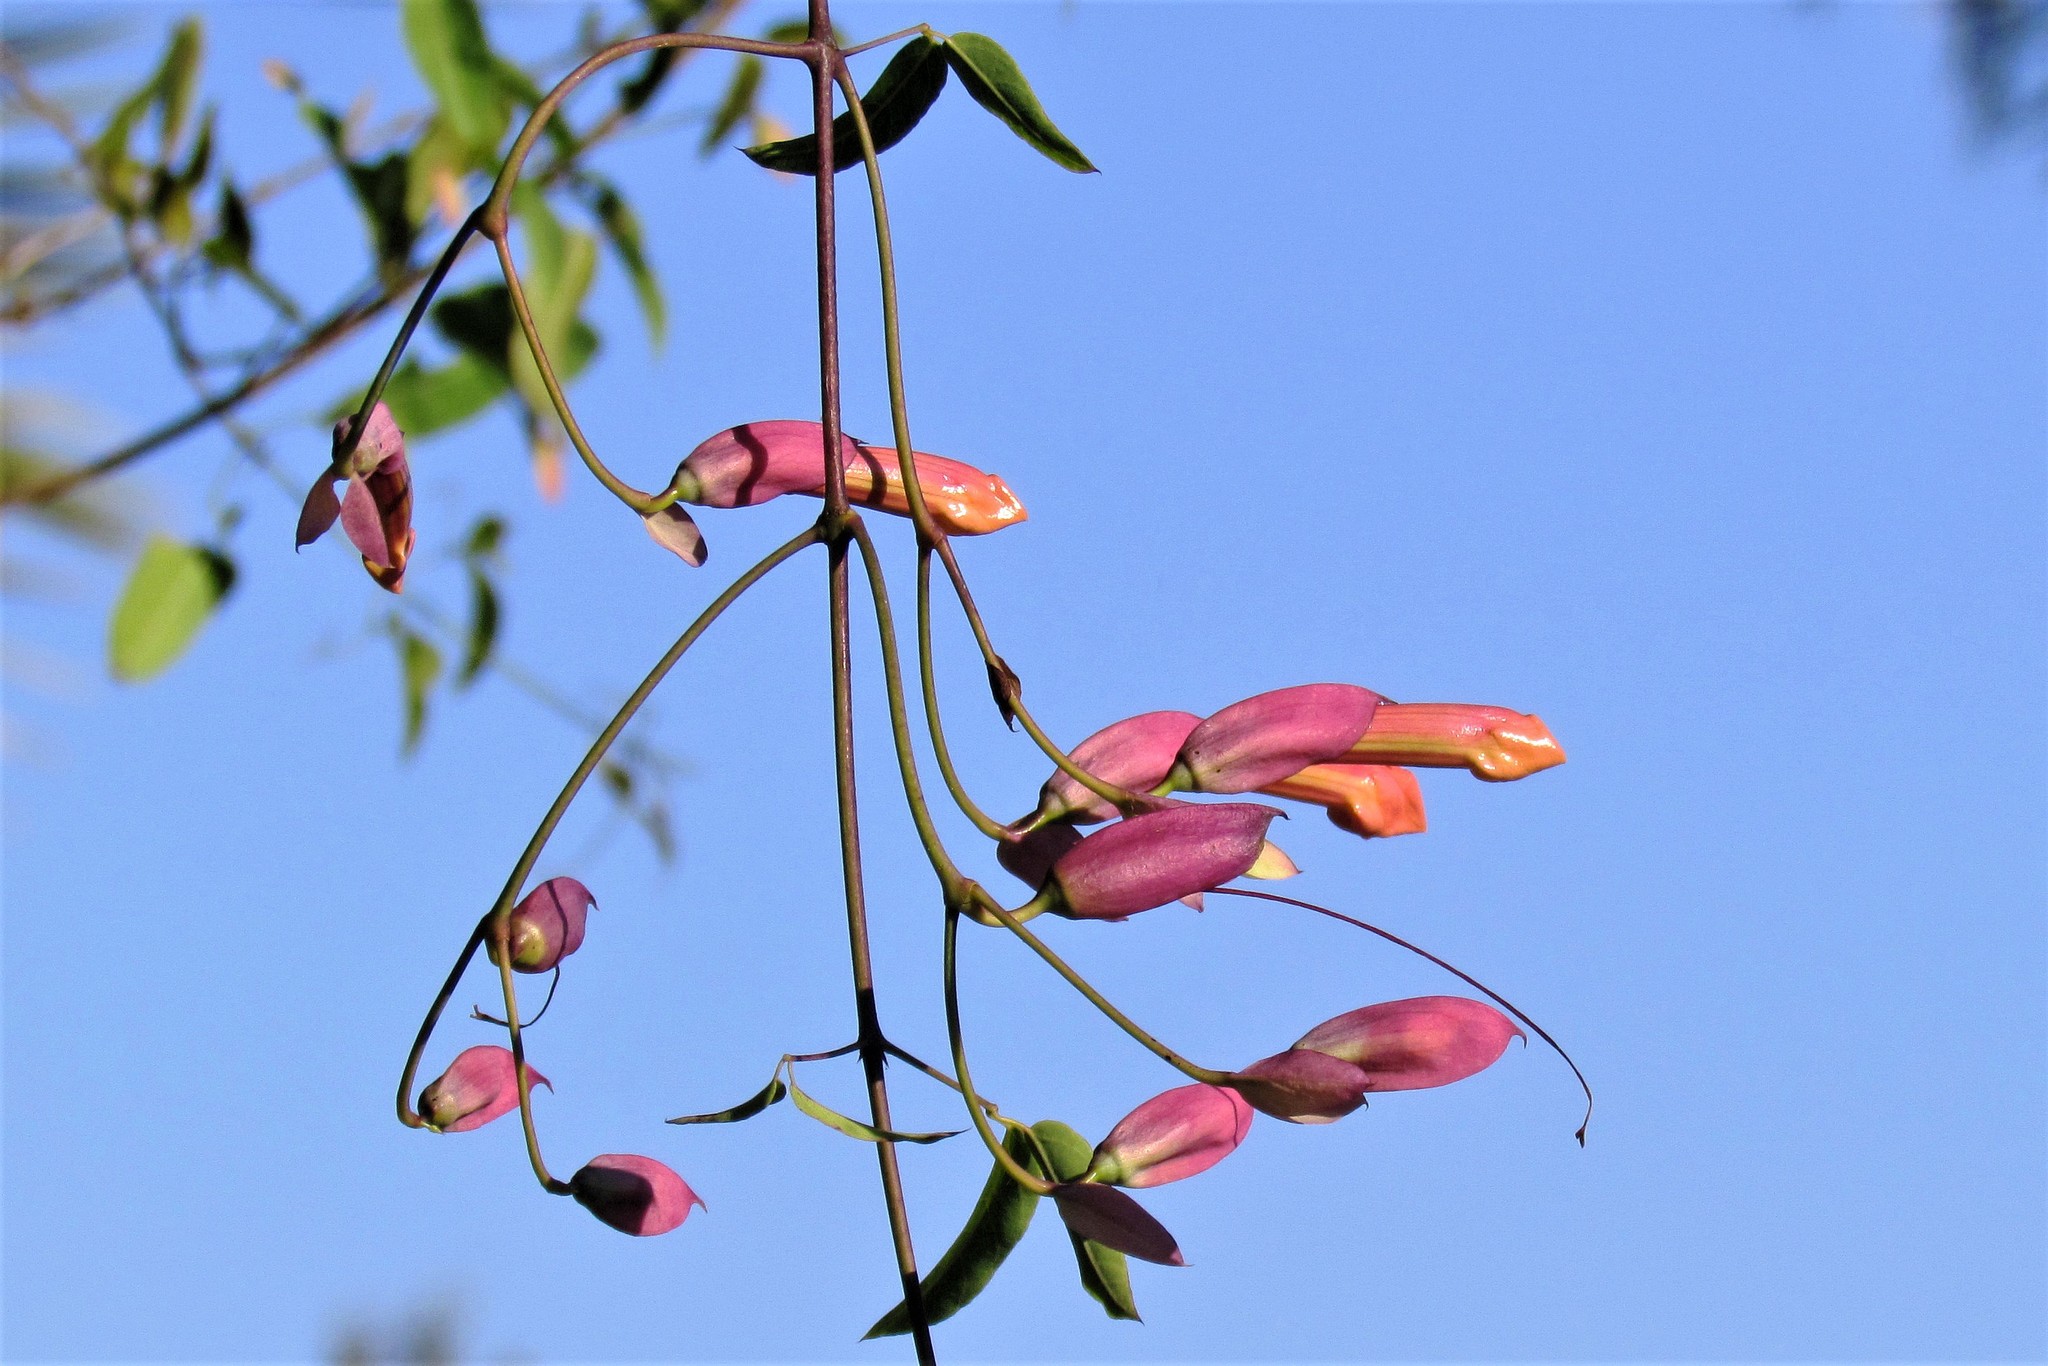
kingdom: Plantae
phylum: Tracheophyta
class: Magnoliopsida
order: Lamiales
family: Bignoniaceae
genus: Dolichandra
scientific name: Dolichandra cynanchoides
